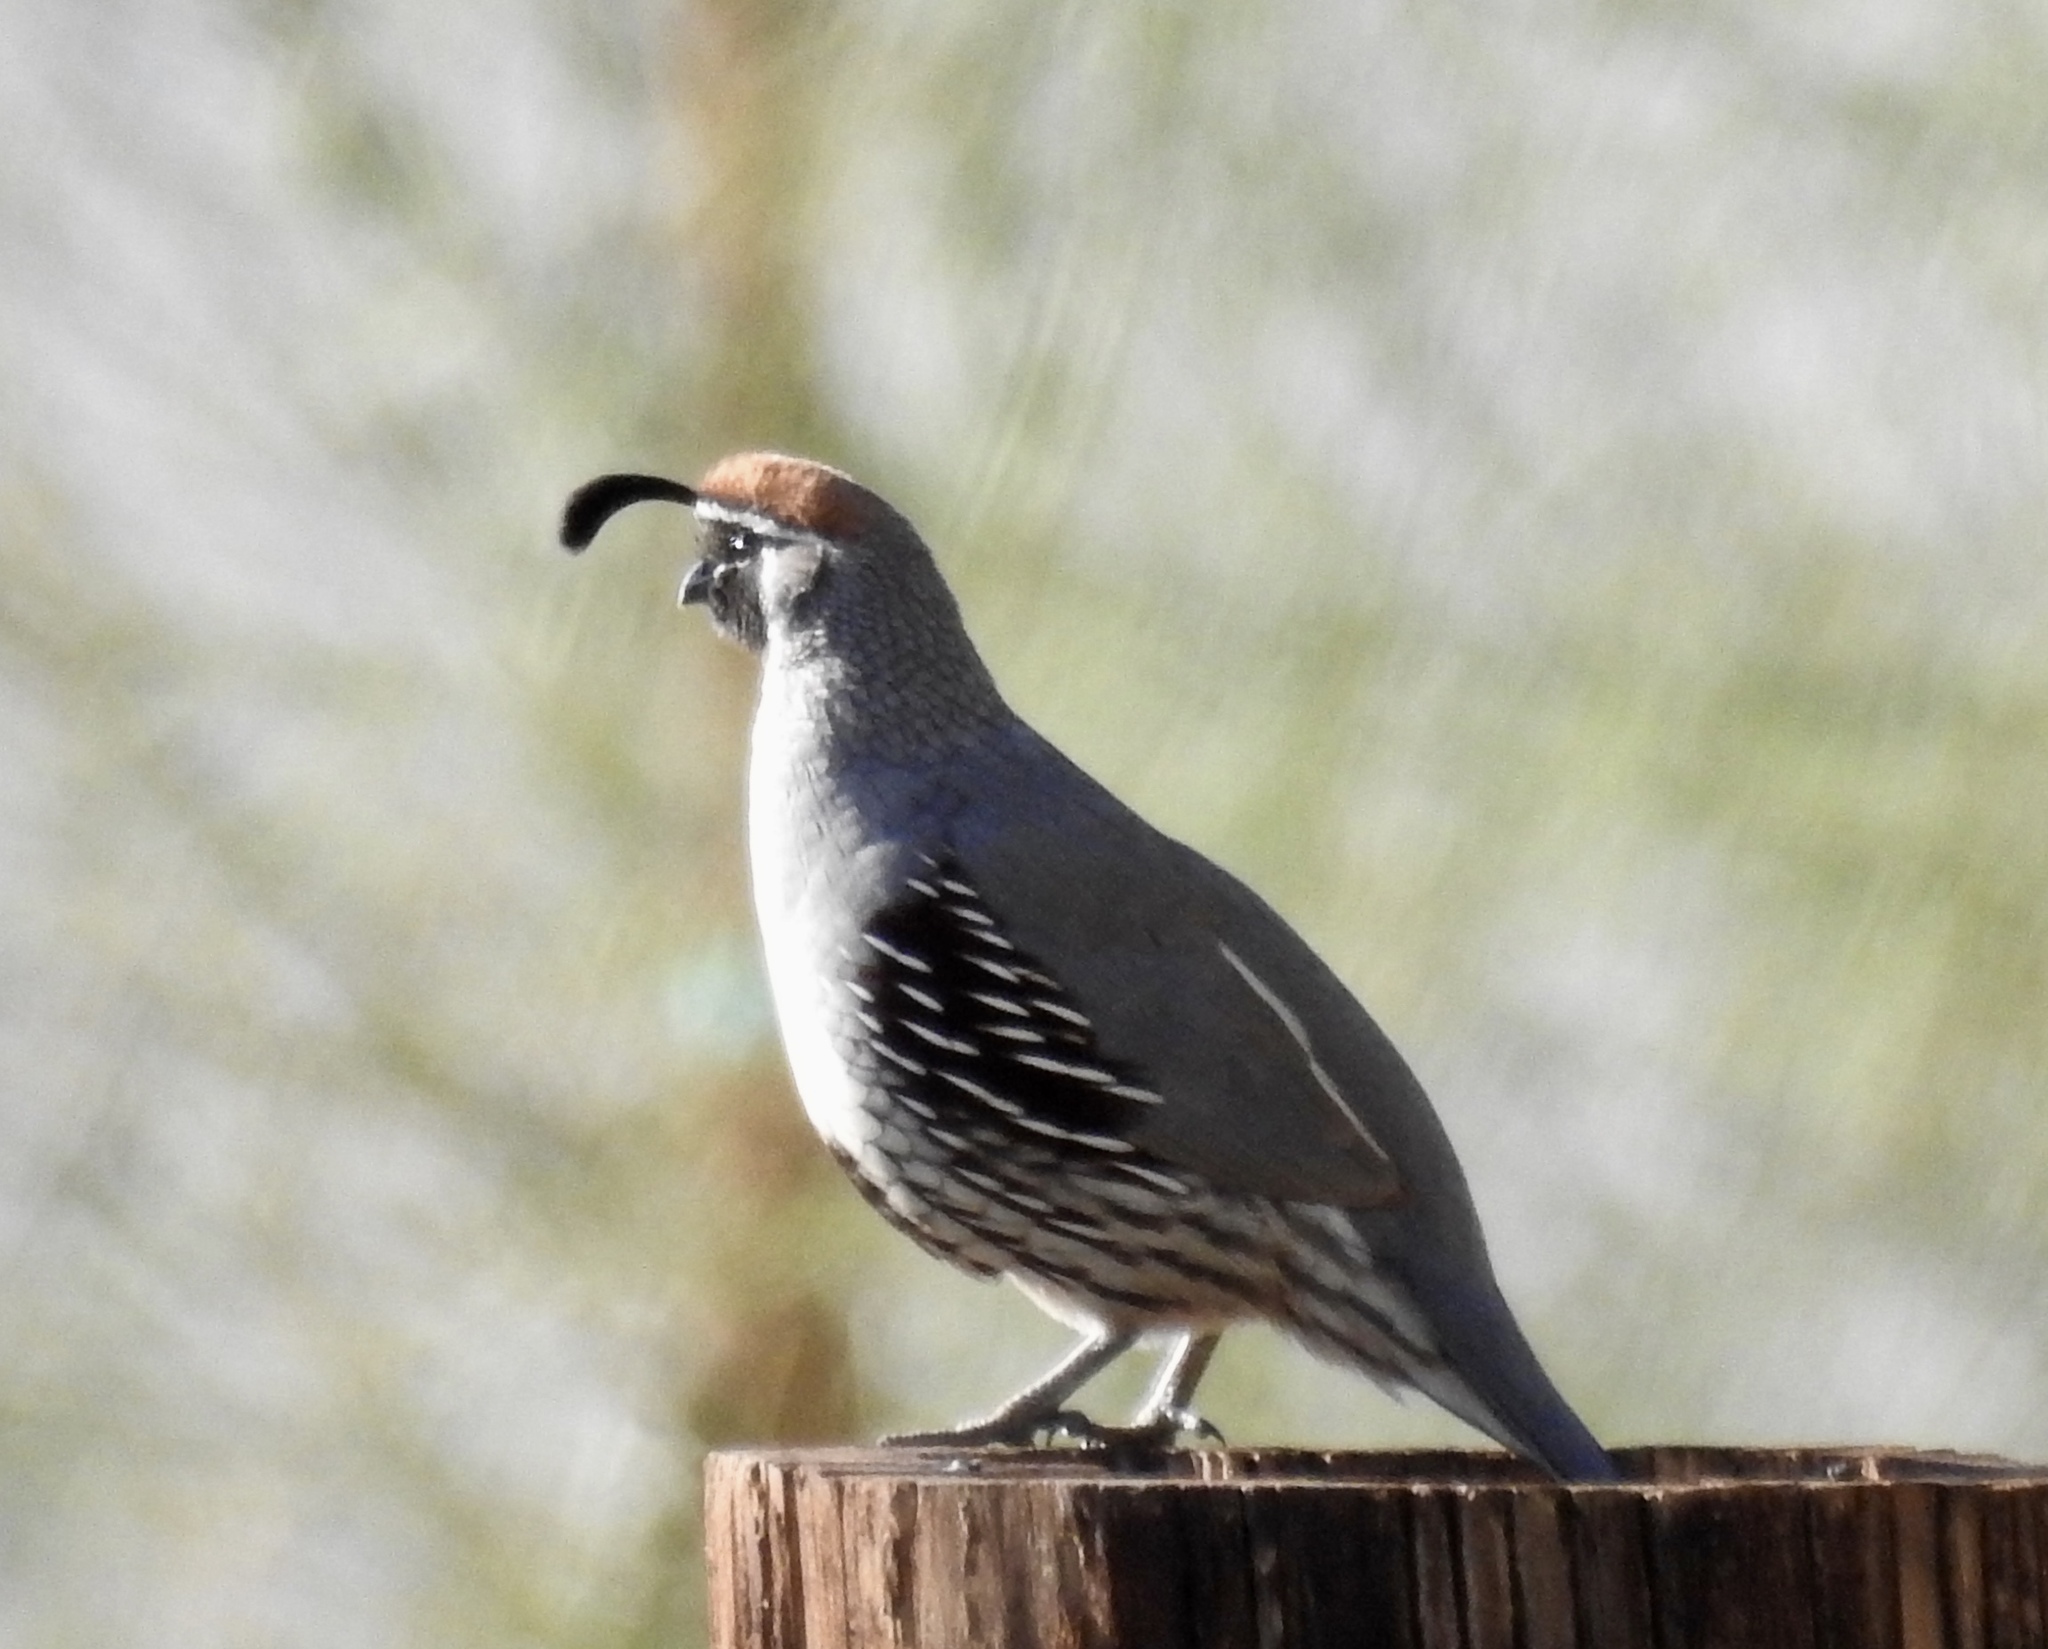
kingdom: Animalia
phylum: Chordata
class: Aves
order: Galliformes
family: Odontophoridae
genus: Callipepla
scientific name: Callipepla gambelii
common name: Gambel's quail
